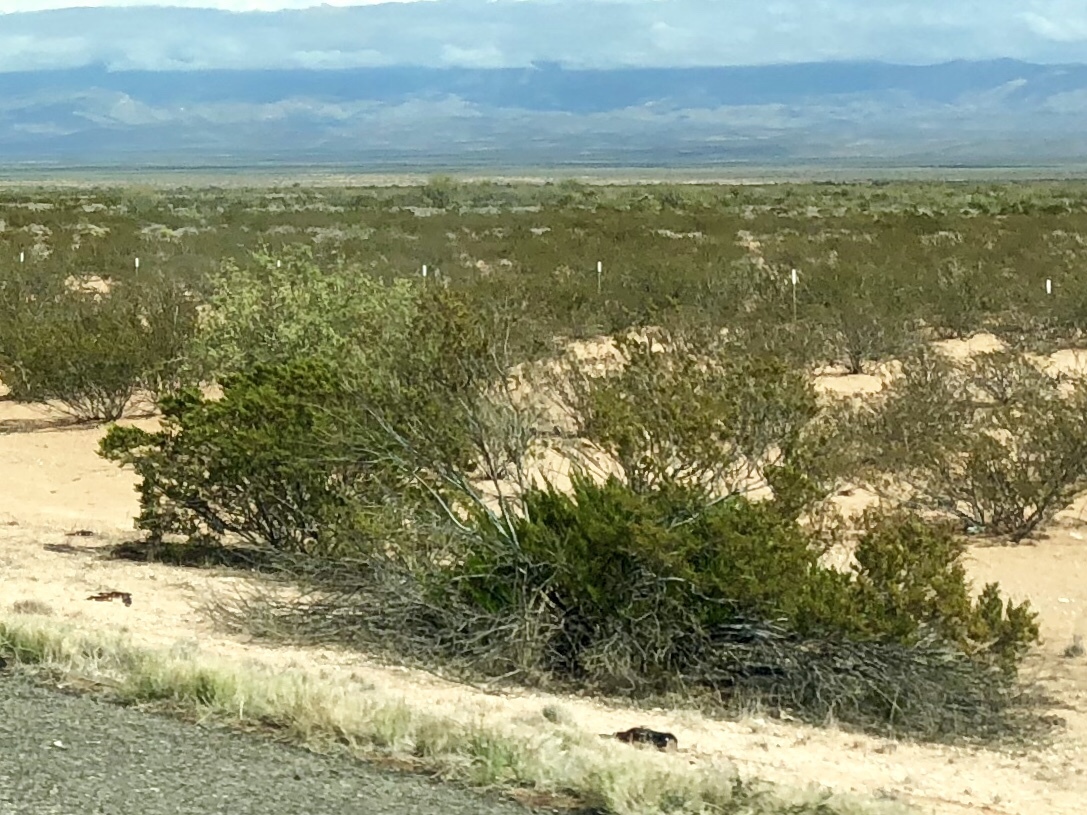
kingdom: Plantae
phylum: Tracheophyta
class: Magnoliopsida
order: Zygophyllales
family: Zygophyllaceae
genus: Larrea
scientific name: Larrea tridentata
